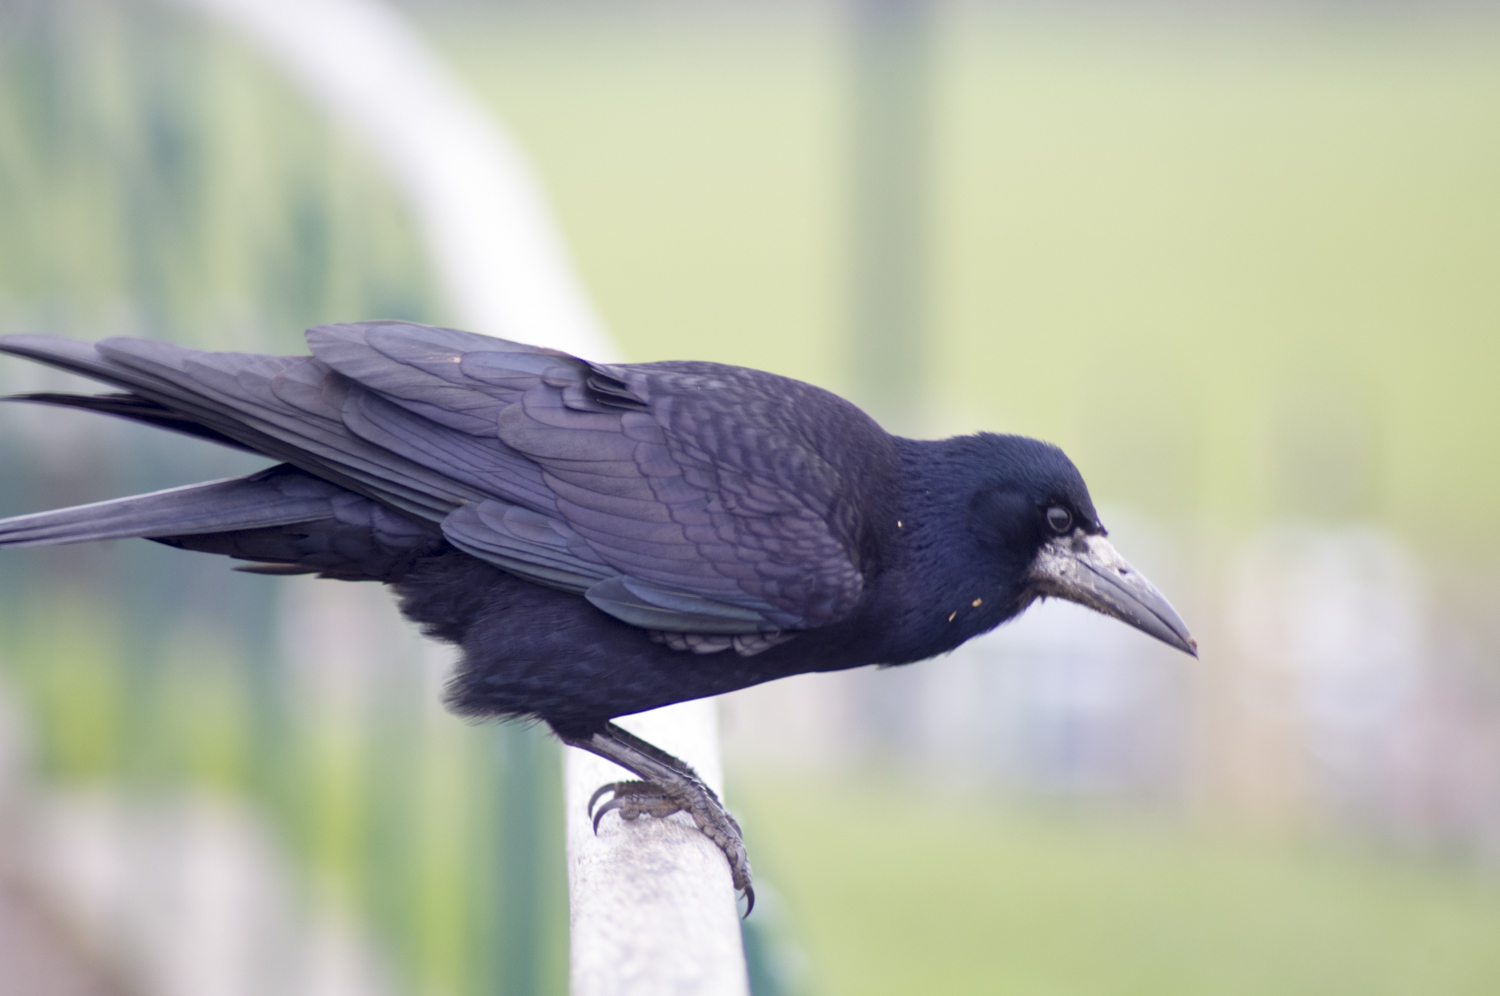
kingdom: Animalia
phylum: Chordata
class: Aves
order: Passeriformes
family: Corvidae
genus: Corvus
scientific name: Corvus frugilegus
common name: Rook
